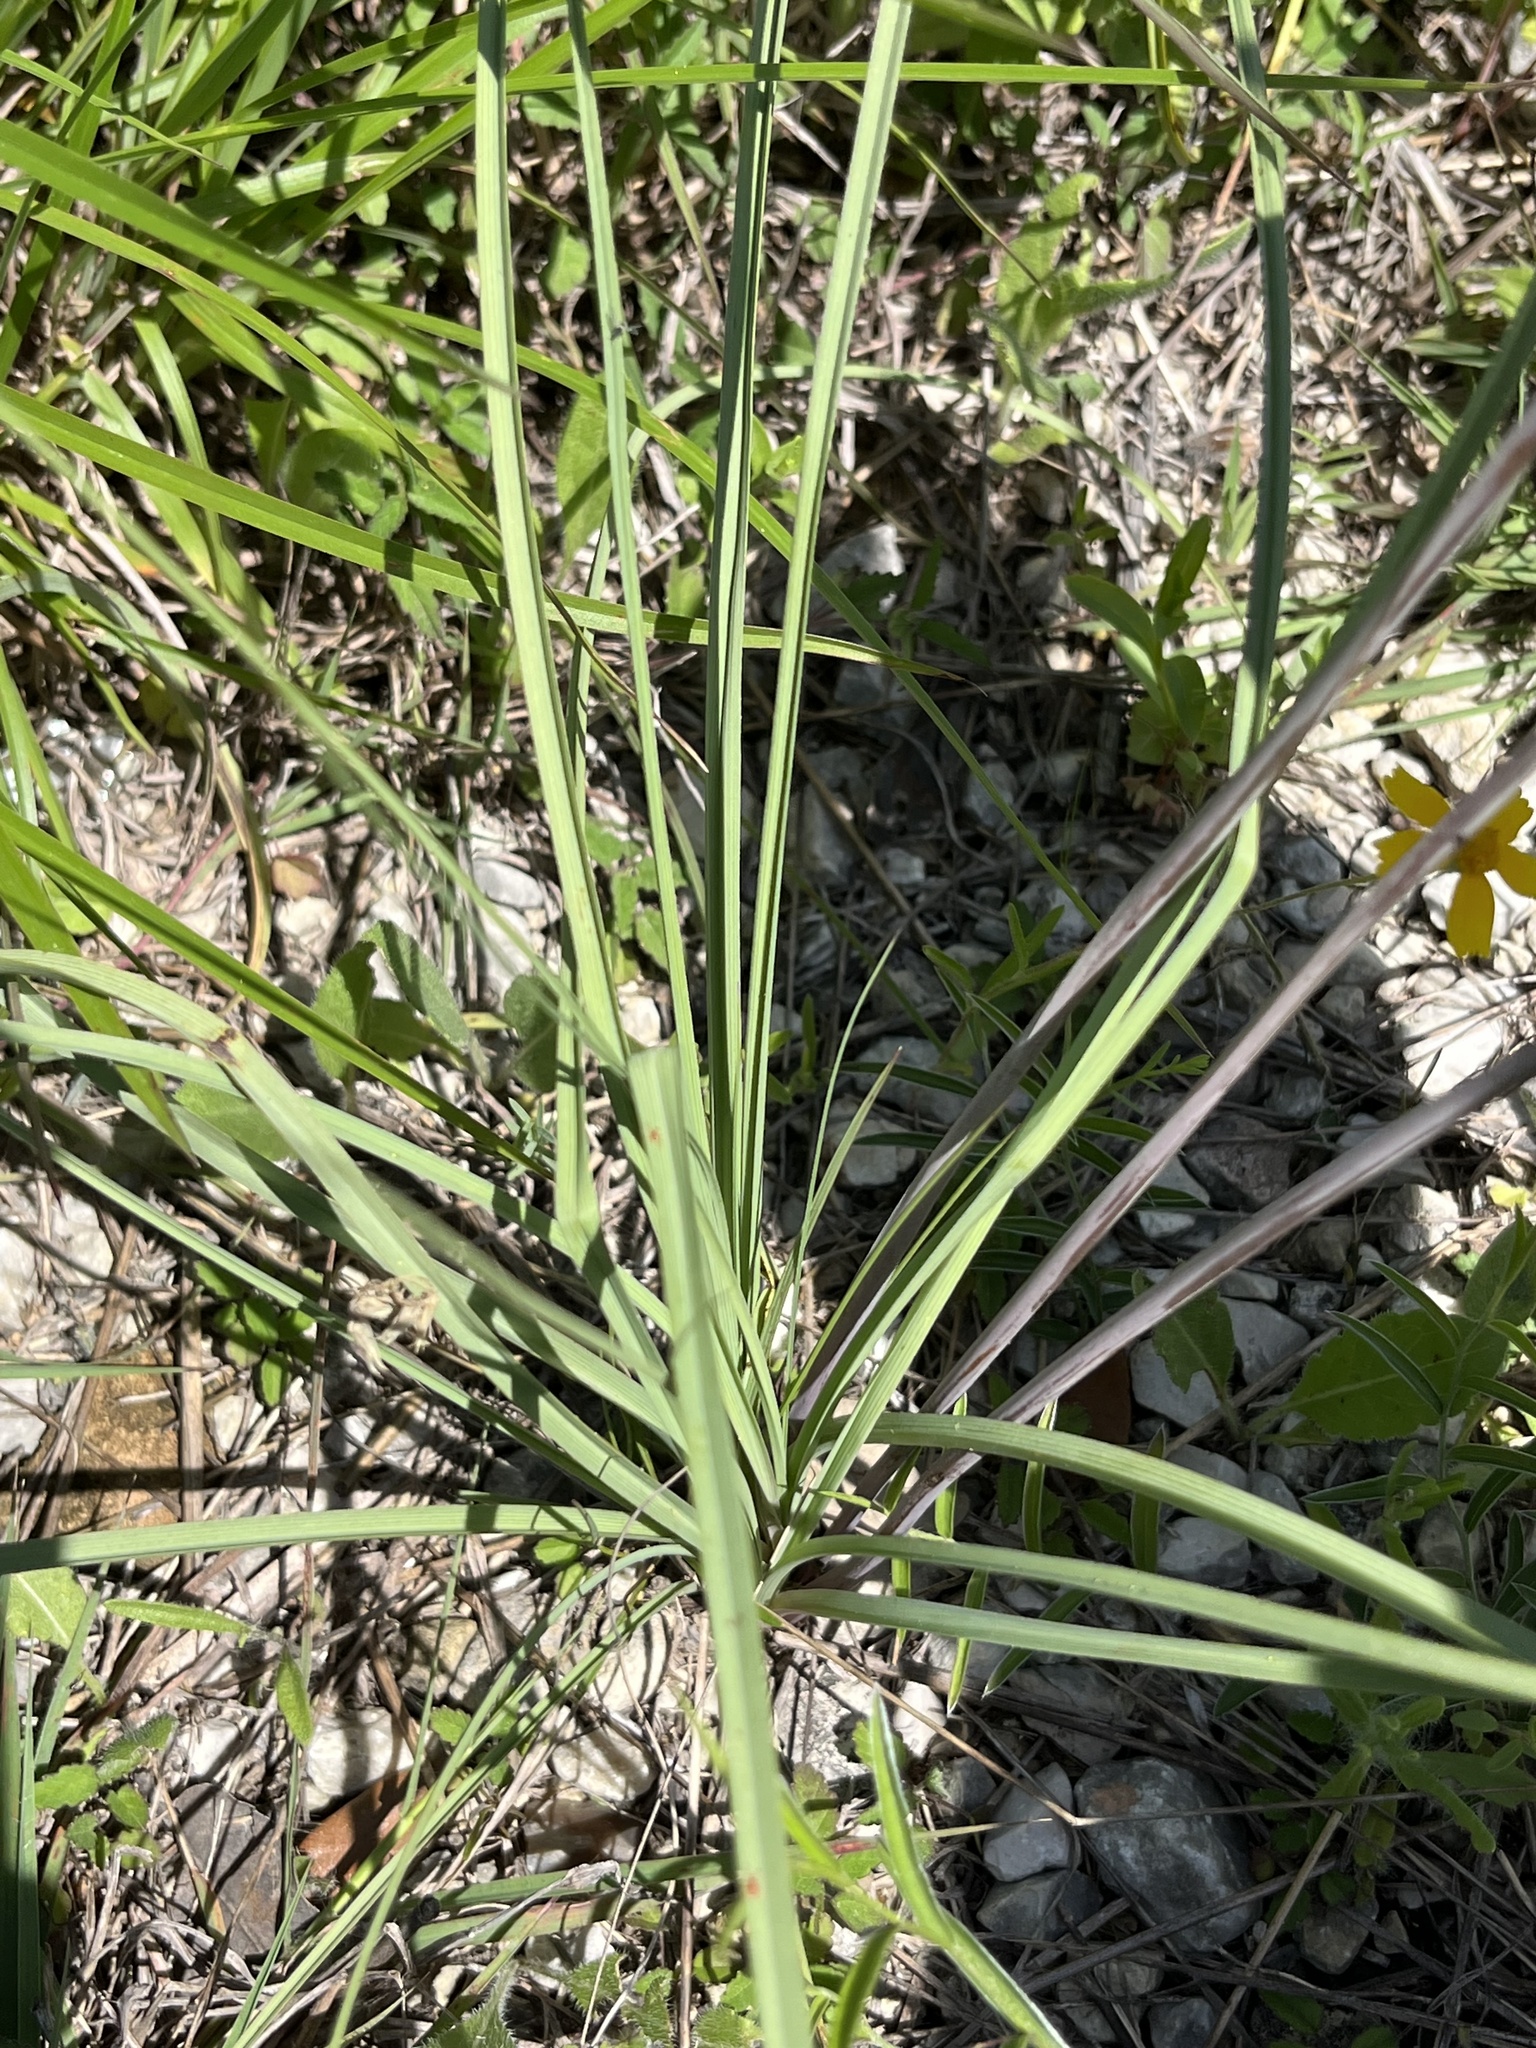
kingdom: Plantae
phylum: Tracheophyta
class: Liliopsida
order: Liliales
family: Melanthiaceae
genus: Schoenocaulon
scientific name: Schoenocaulon texanum
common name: Texas feather-shank
